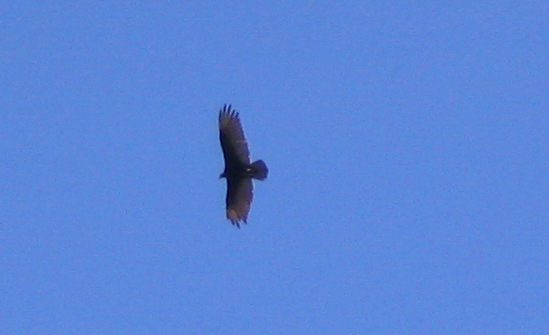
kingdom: Animalia
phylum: Chordata
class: Aves
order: Accipitriformes
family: Cathartidae
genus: Cathartes
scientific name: Cathartes aura
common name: Turkey vulture
